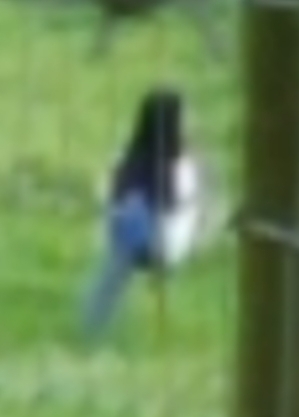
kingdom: Animalia
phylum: Chordata
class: Aves
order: Passeriformes
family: Corvidae
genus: Pica
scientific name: Pica pica
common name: Eurasian magpie
